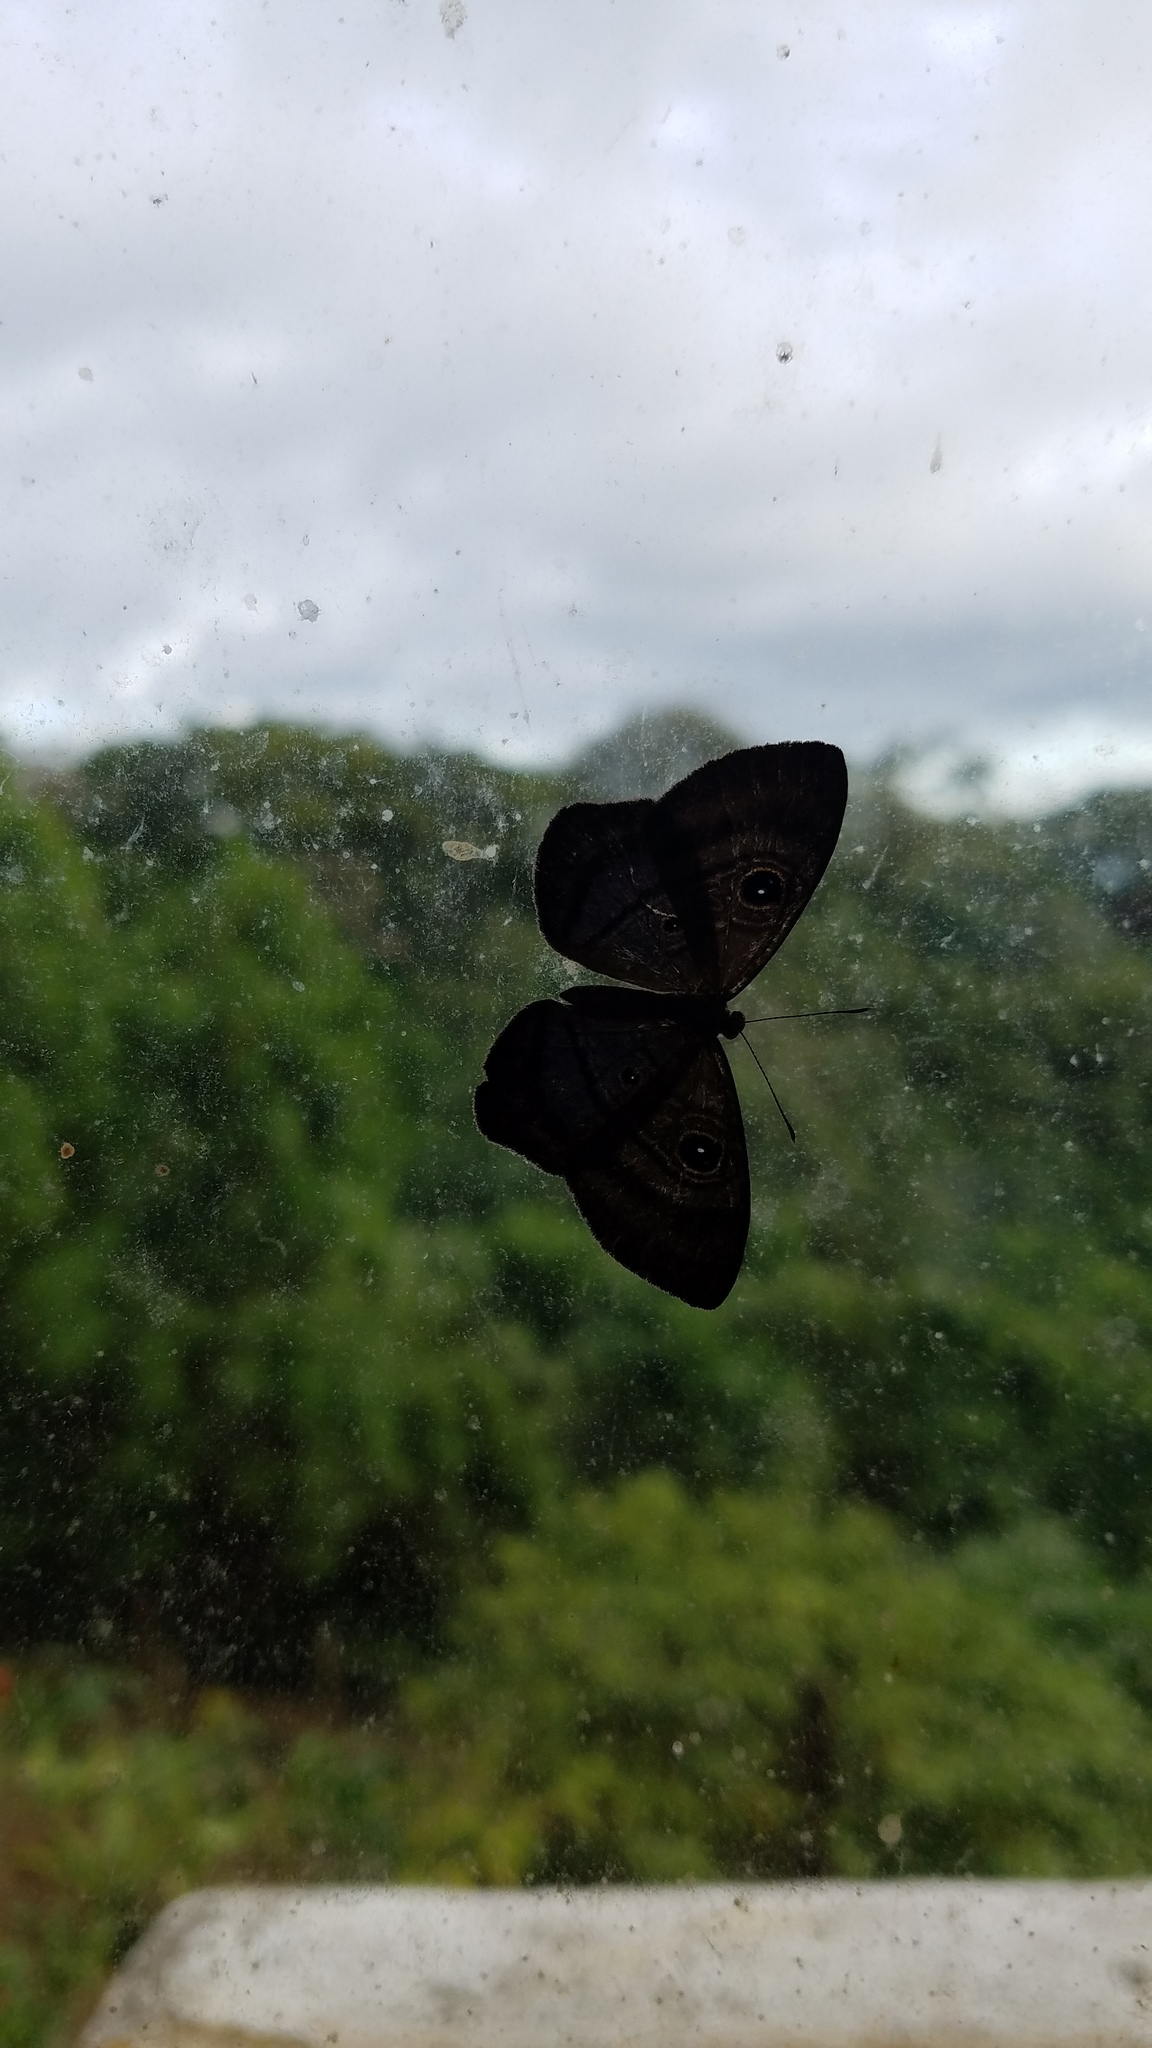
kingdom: Animalia
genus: Mesosemia
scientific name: Mesosemia lamachus
